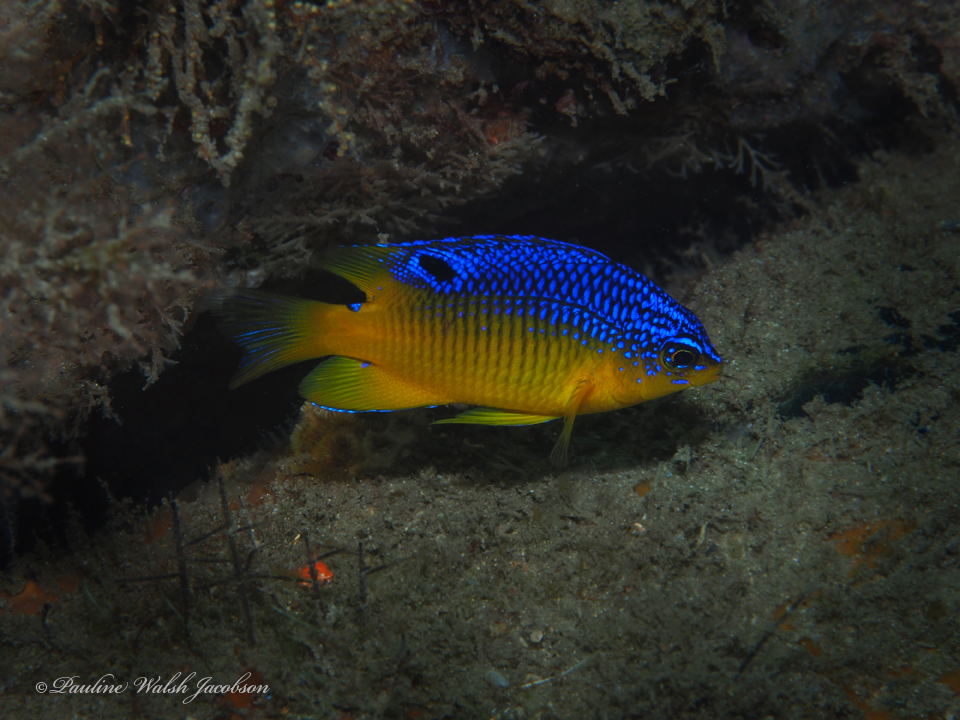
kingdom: Animalia
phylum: Chordata
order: Perciformes
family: Pomacentridae
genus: Stegastes
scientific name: Stegastes xanthurus
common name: Cocoa damselfish
